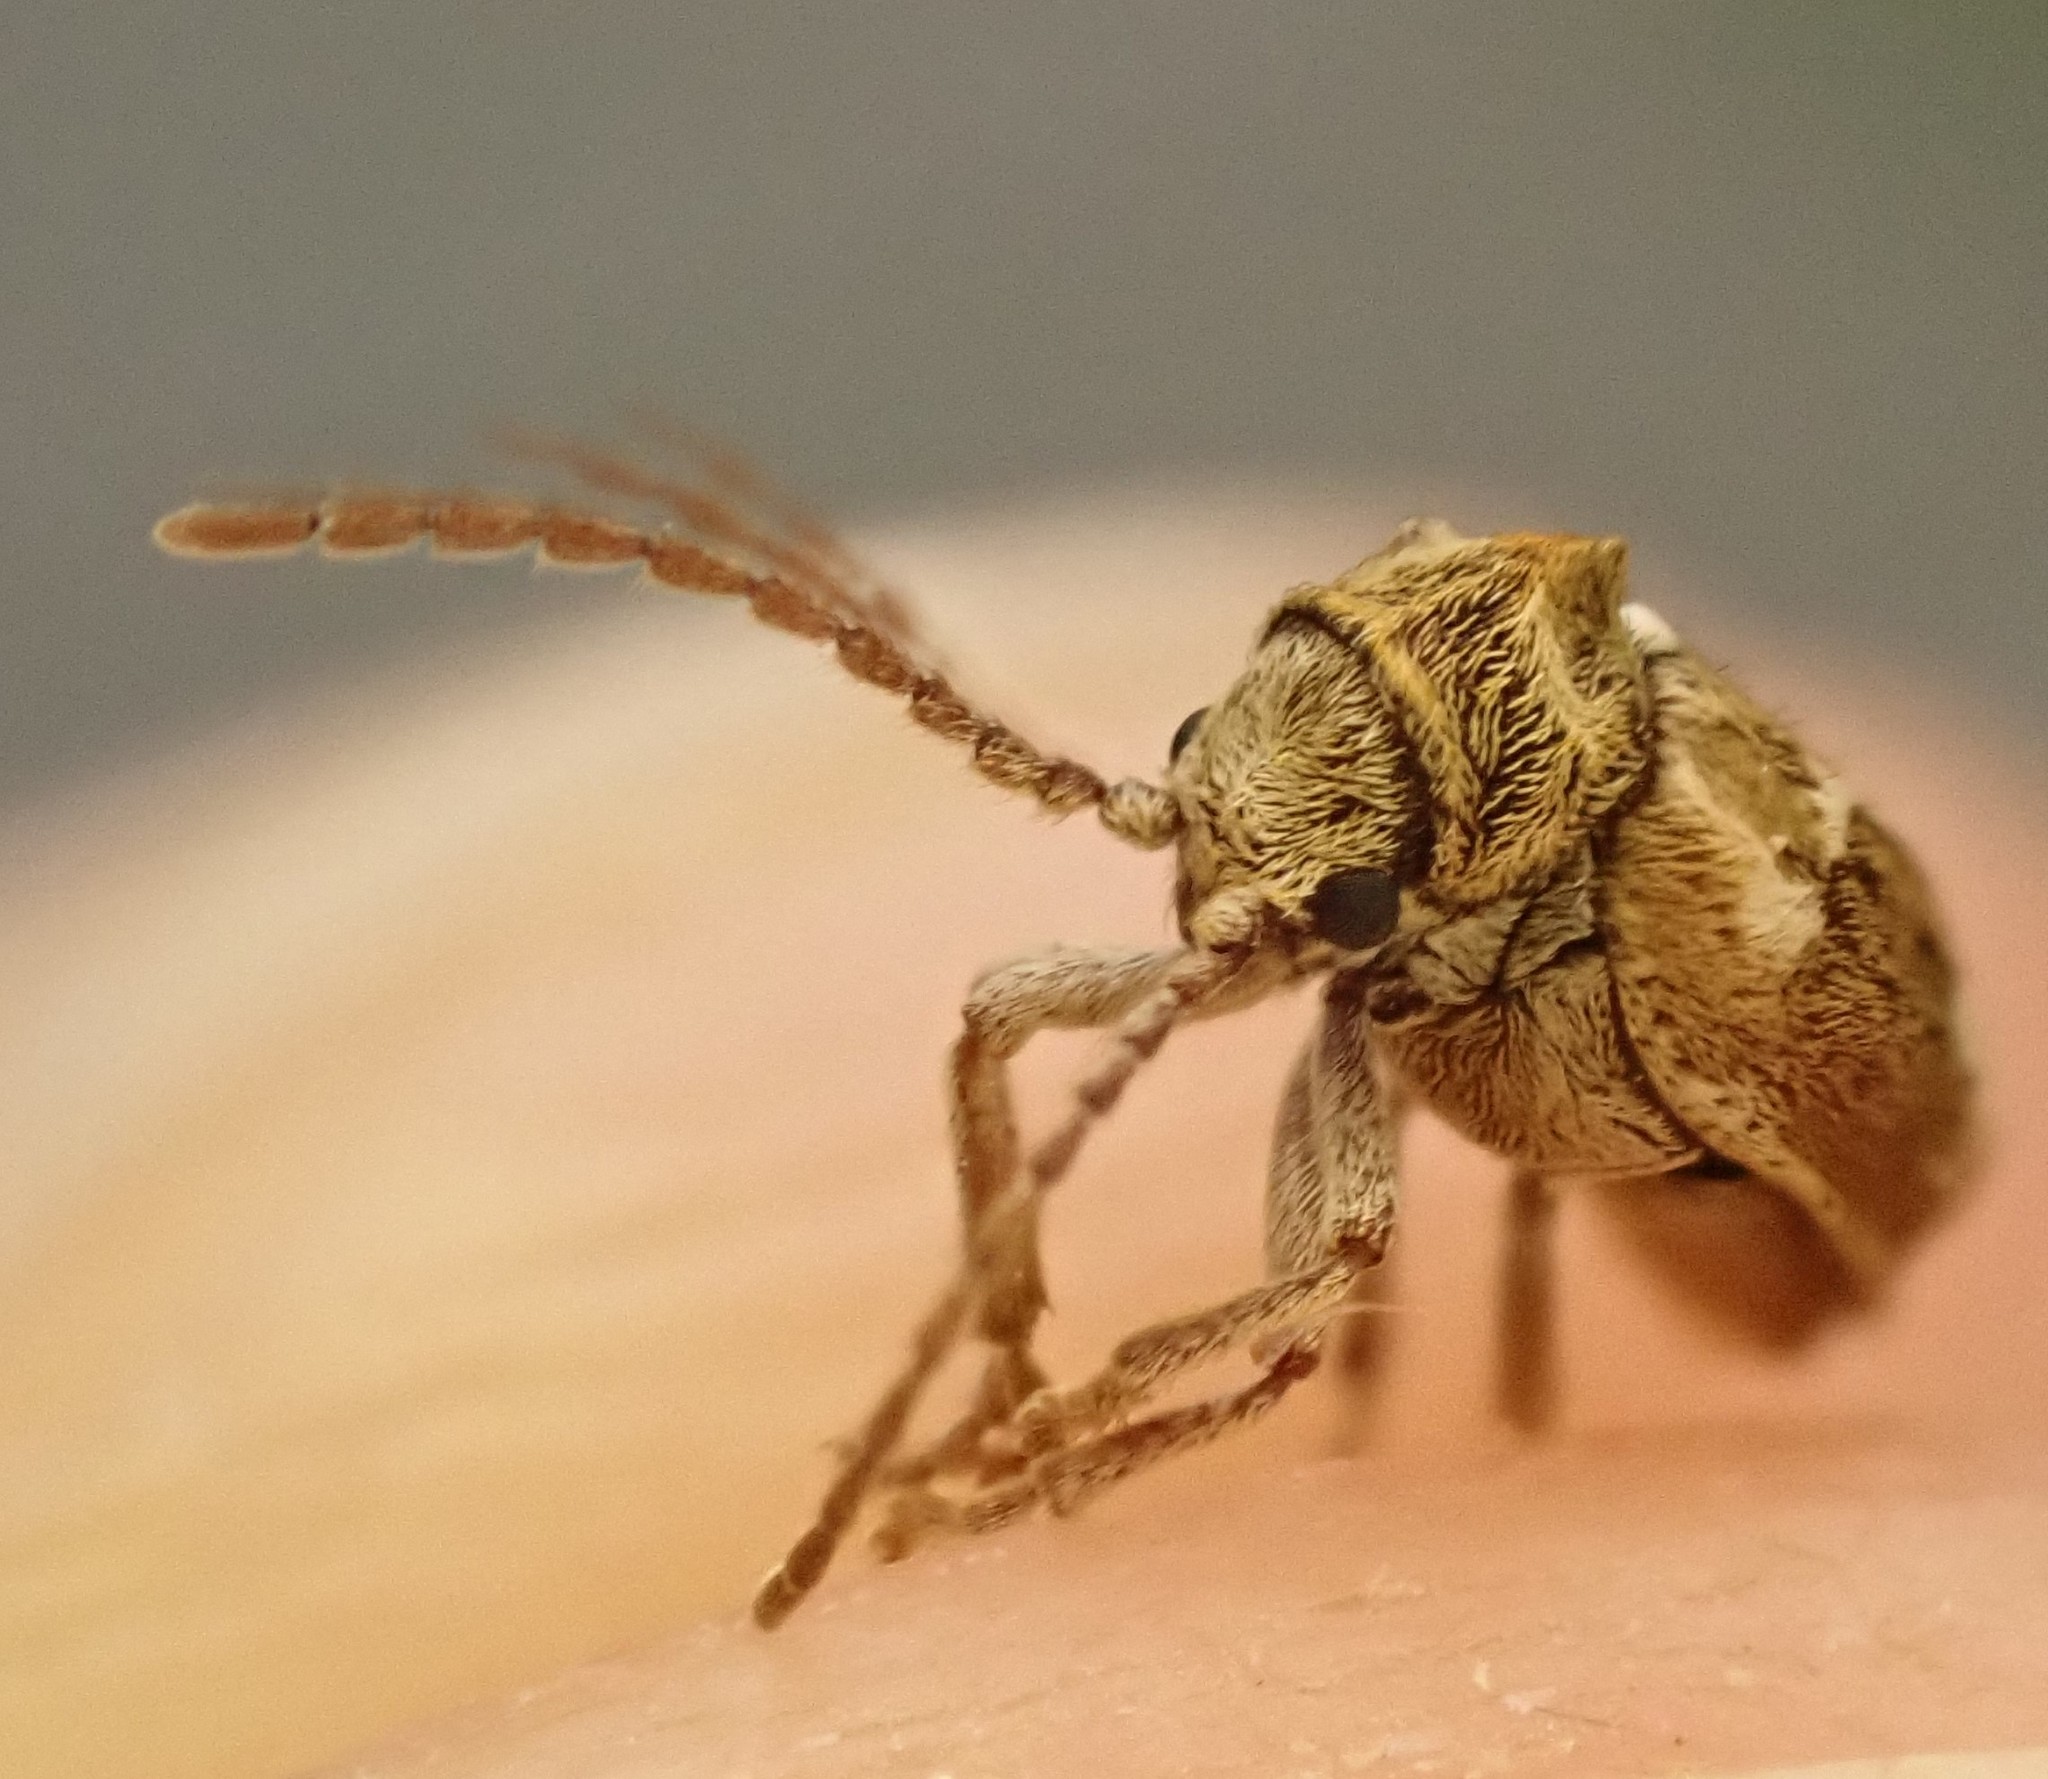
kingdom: Animalia
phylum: Arthropoda
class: Insecta
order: Coleoptera
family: Anobiidae
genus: Ptinomorphus
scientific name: Ptinomorphus imperialis
